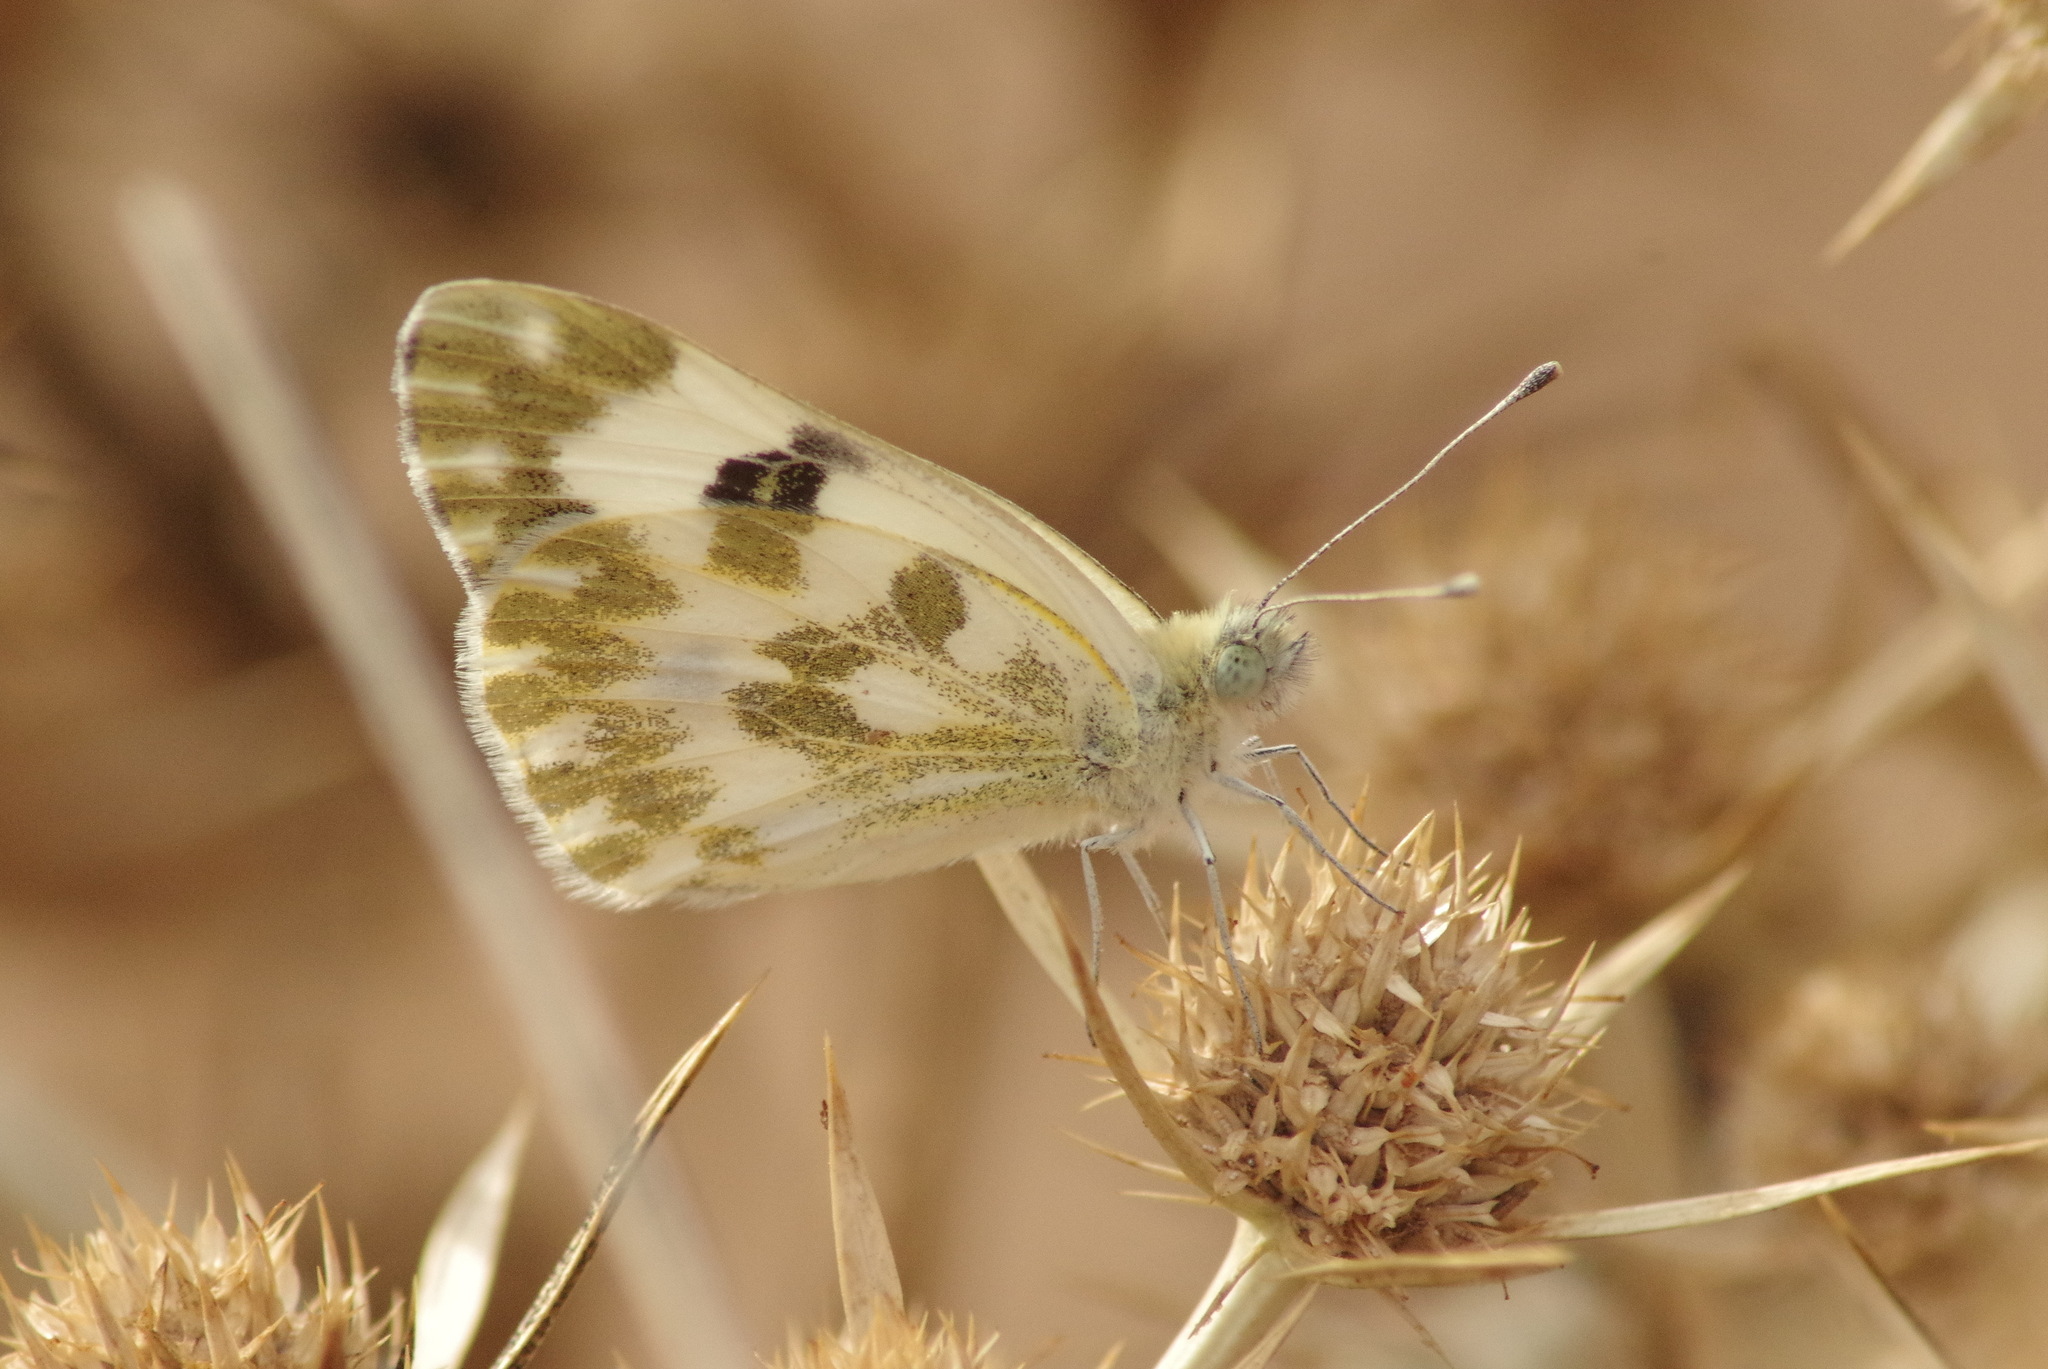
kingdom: Animalia
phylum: Arthropoda
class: Insecta
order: Lepidoptera
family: Pieridae
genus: Pontia
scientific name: Pontia daplidice
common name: Bath white
